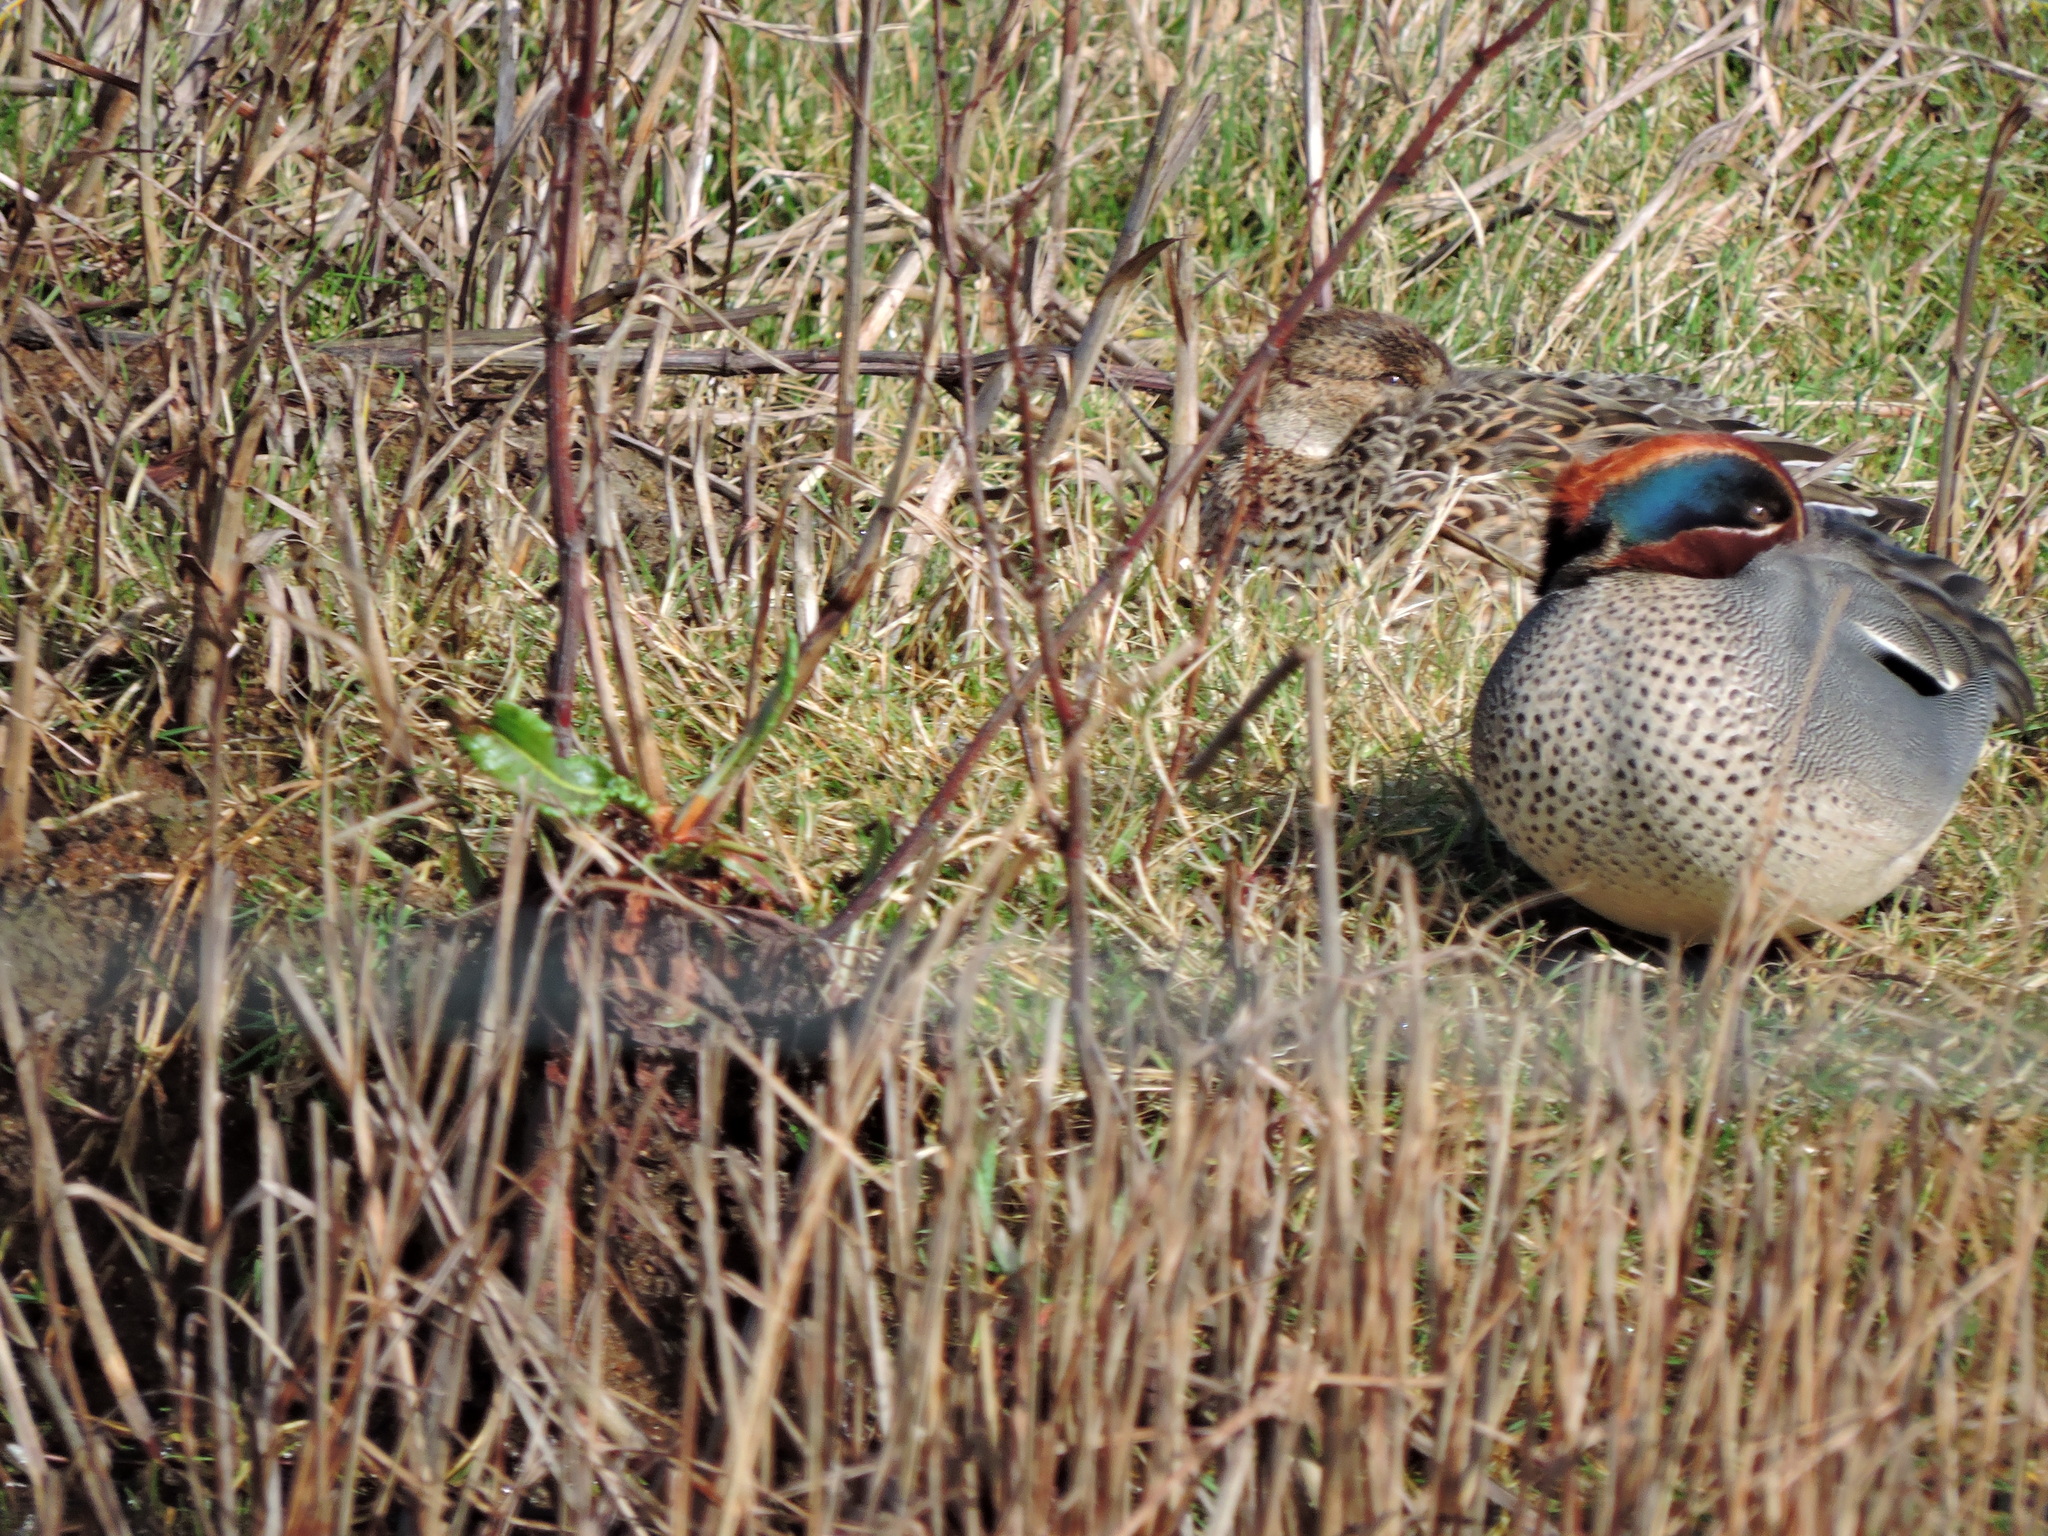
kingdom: Animalia
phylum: Chordata
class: Aves
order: Anseriformes
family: Anatidae
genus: Anas
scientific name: Anas crecca
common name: Eurasian teal
